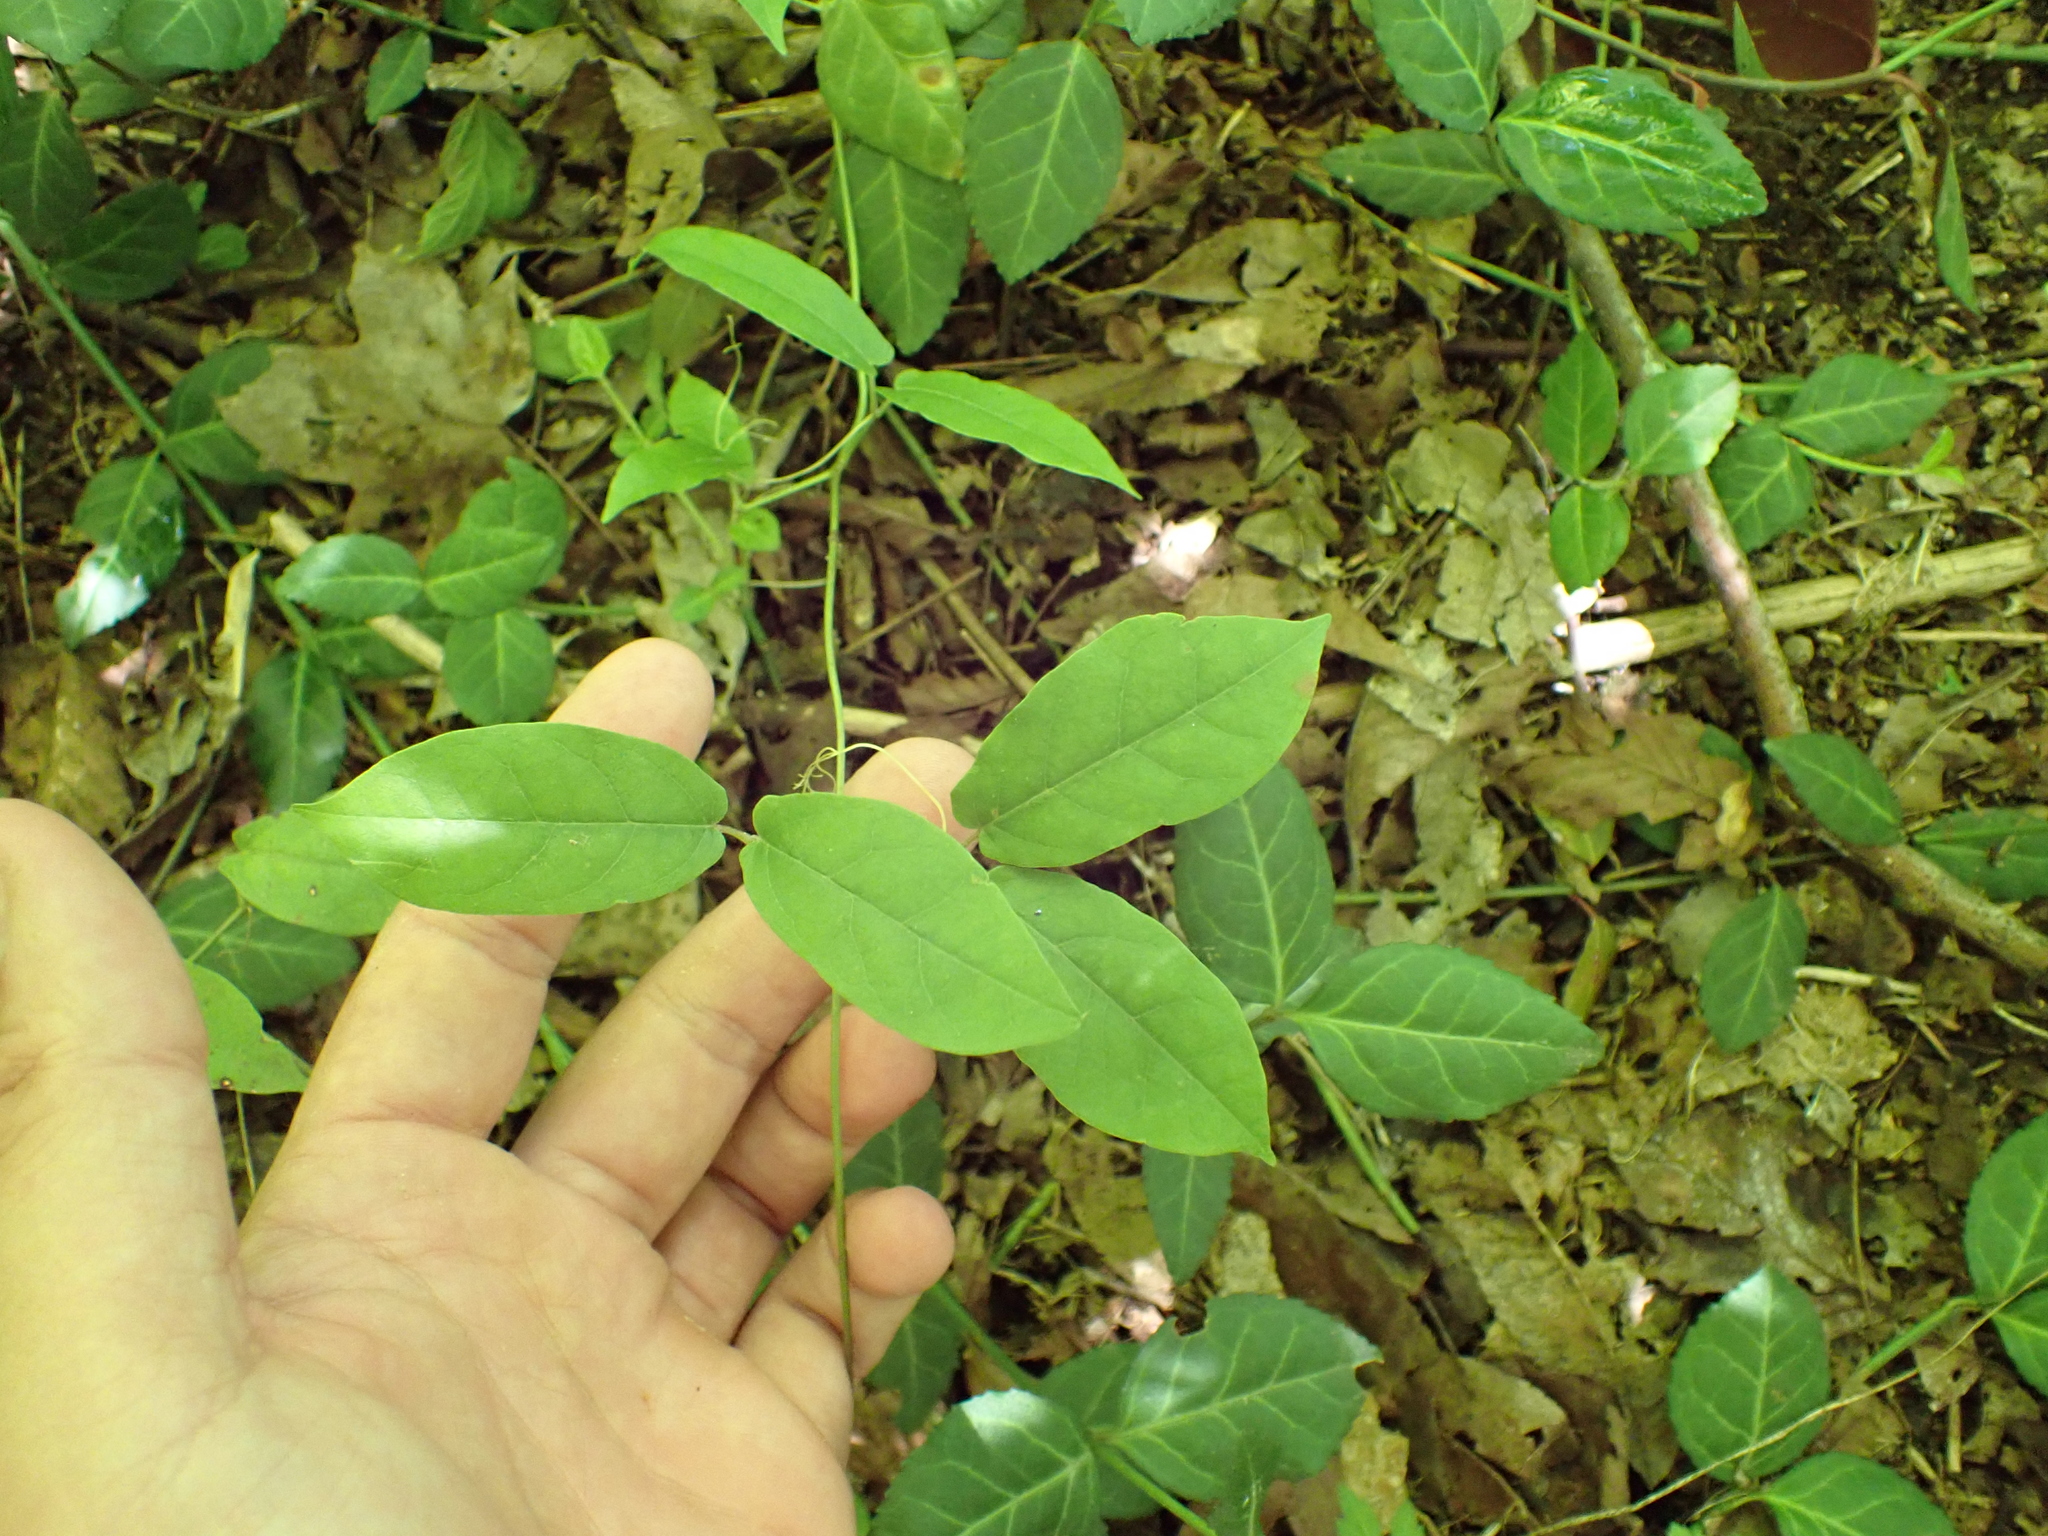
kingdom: Plantae
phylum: Tracheophyta
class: Magnoliopsida
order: Lamiales
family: Bignoniaceae
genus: Bignonia
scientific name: Bignonia capreolata
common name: Crossvine
